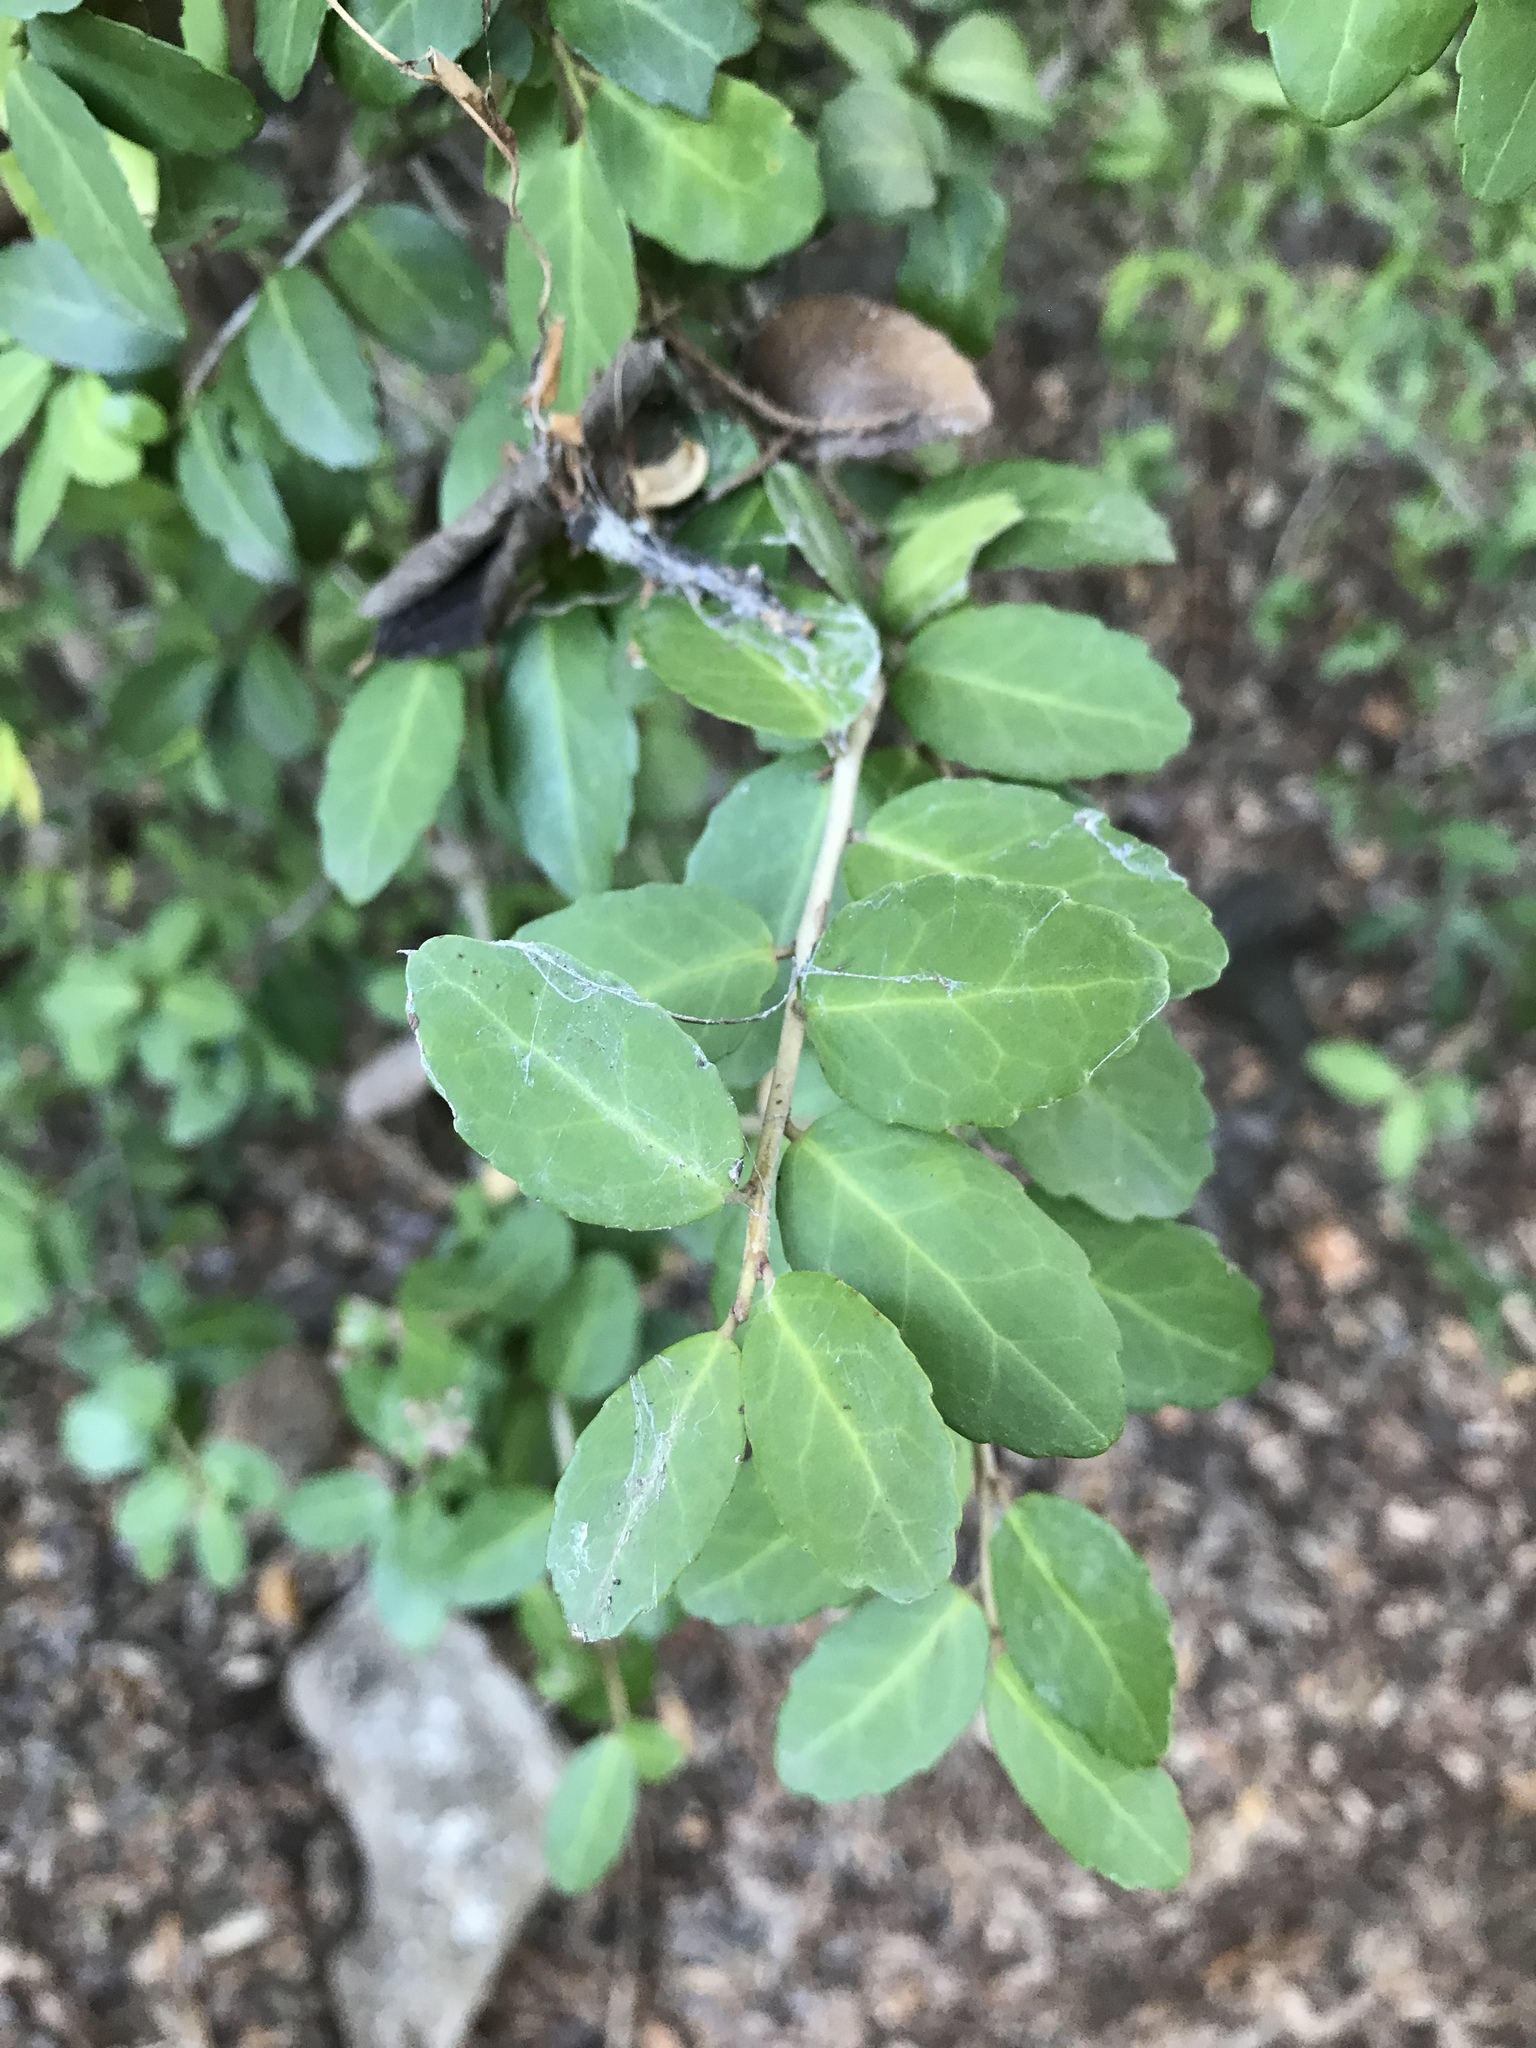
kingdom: Plantae
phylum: Tracheophyta
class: Magnoliopsida
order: Aquifoliales
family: Aquifoliaceae
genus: Ilex
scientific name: Ilex vomitoria
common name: Yaupon holly
